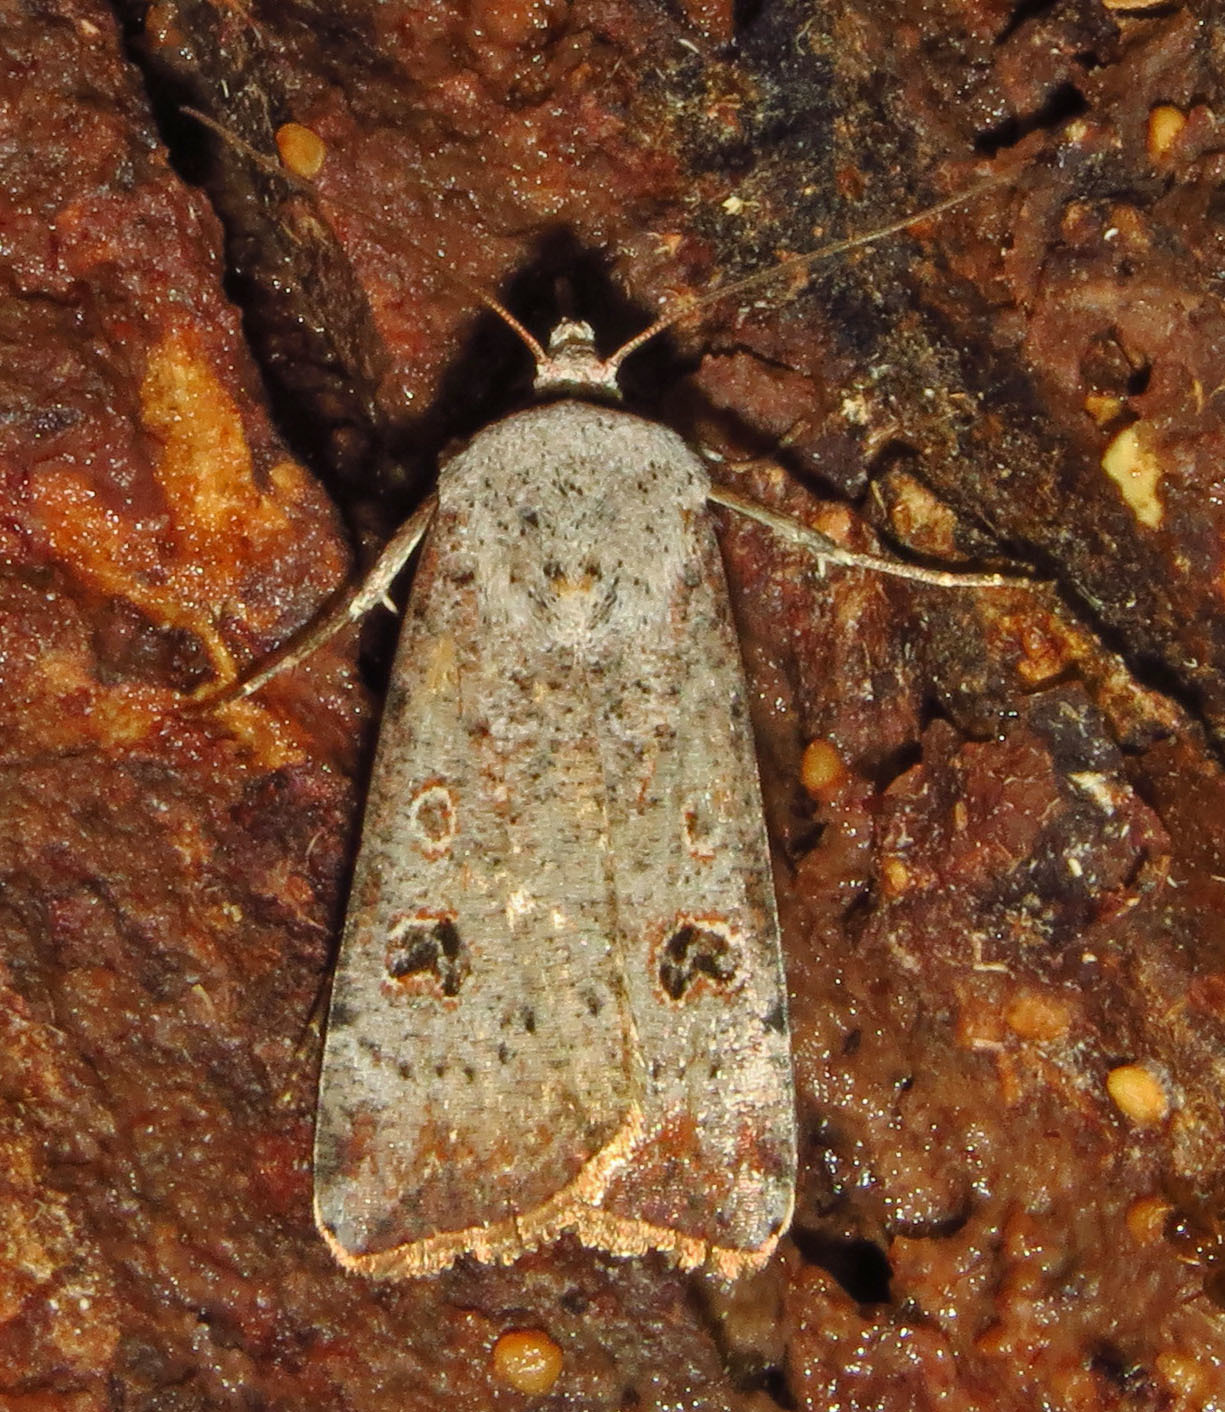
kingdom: Animalia
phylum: Arthropoda
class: Insecta
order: Lepidoptera
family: Noctuidae
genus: Anicla
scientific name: Anicla infecta
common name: Green cutworm
